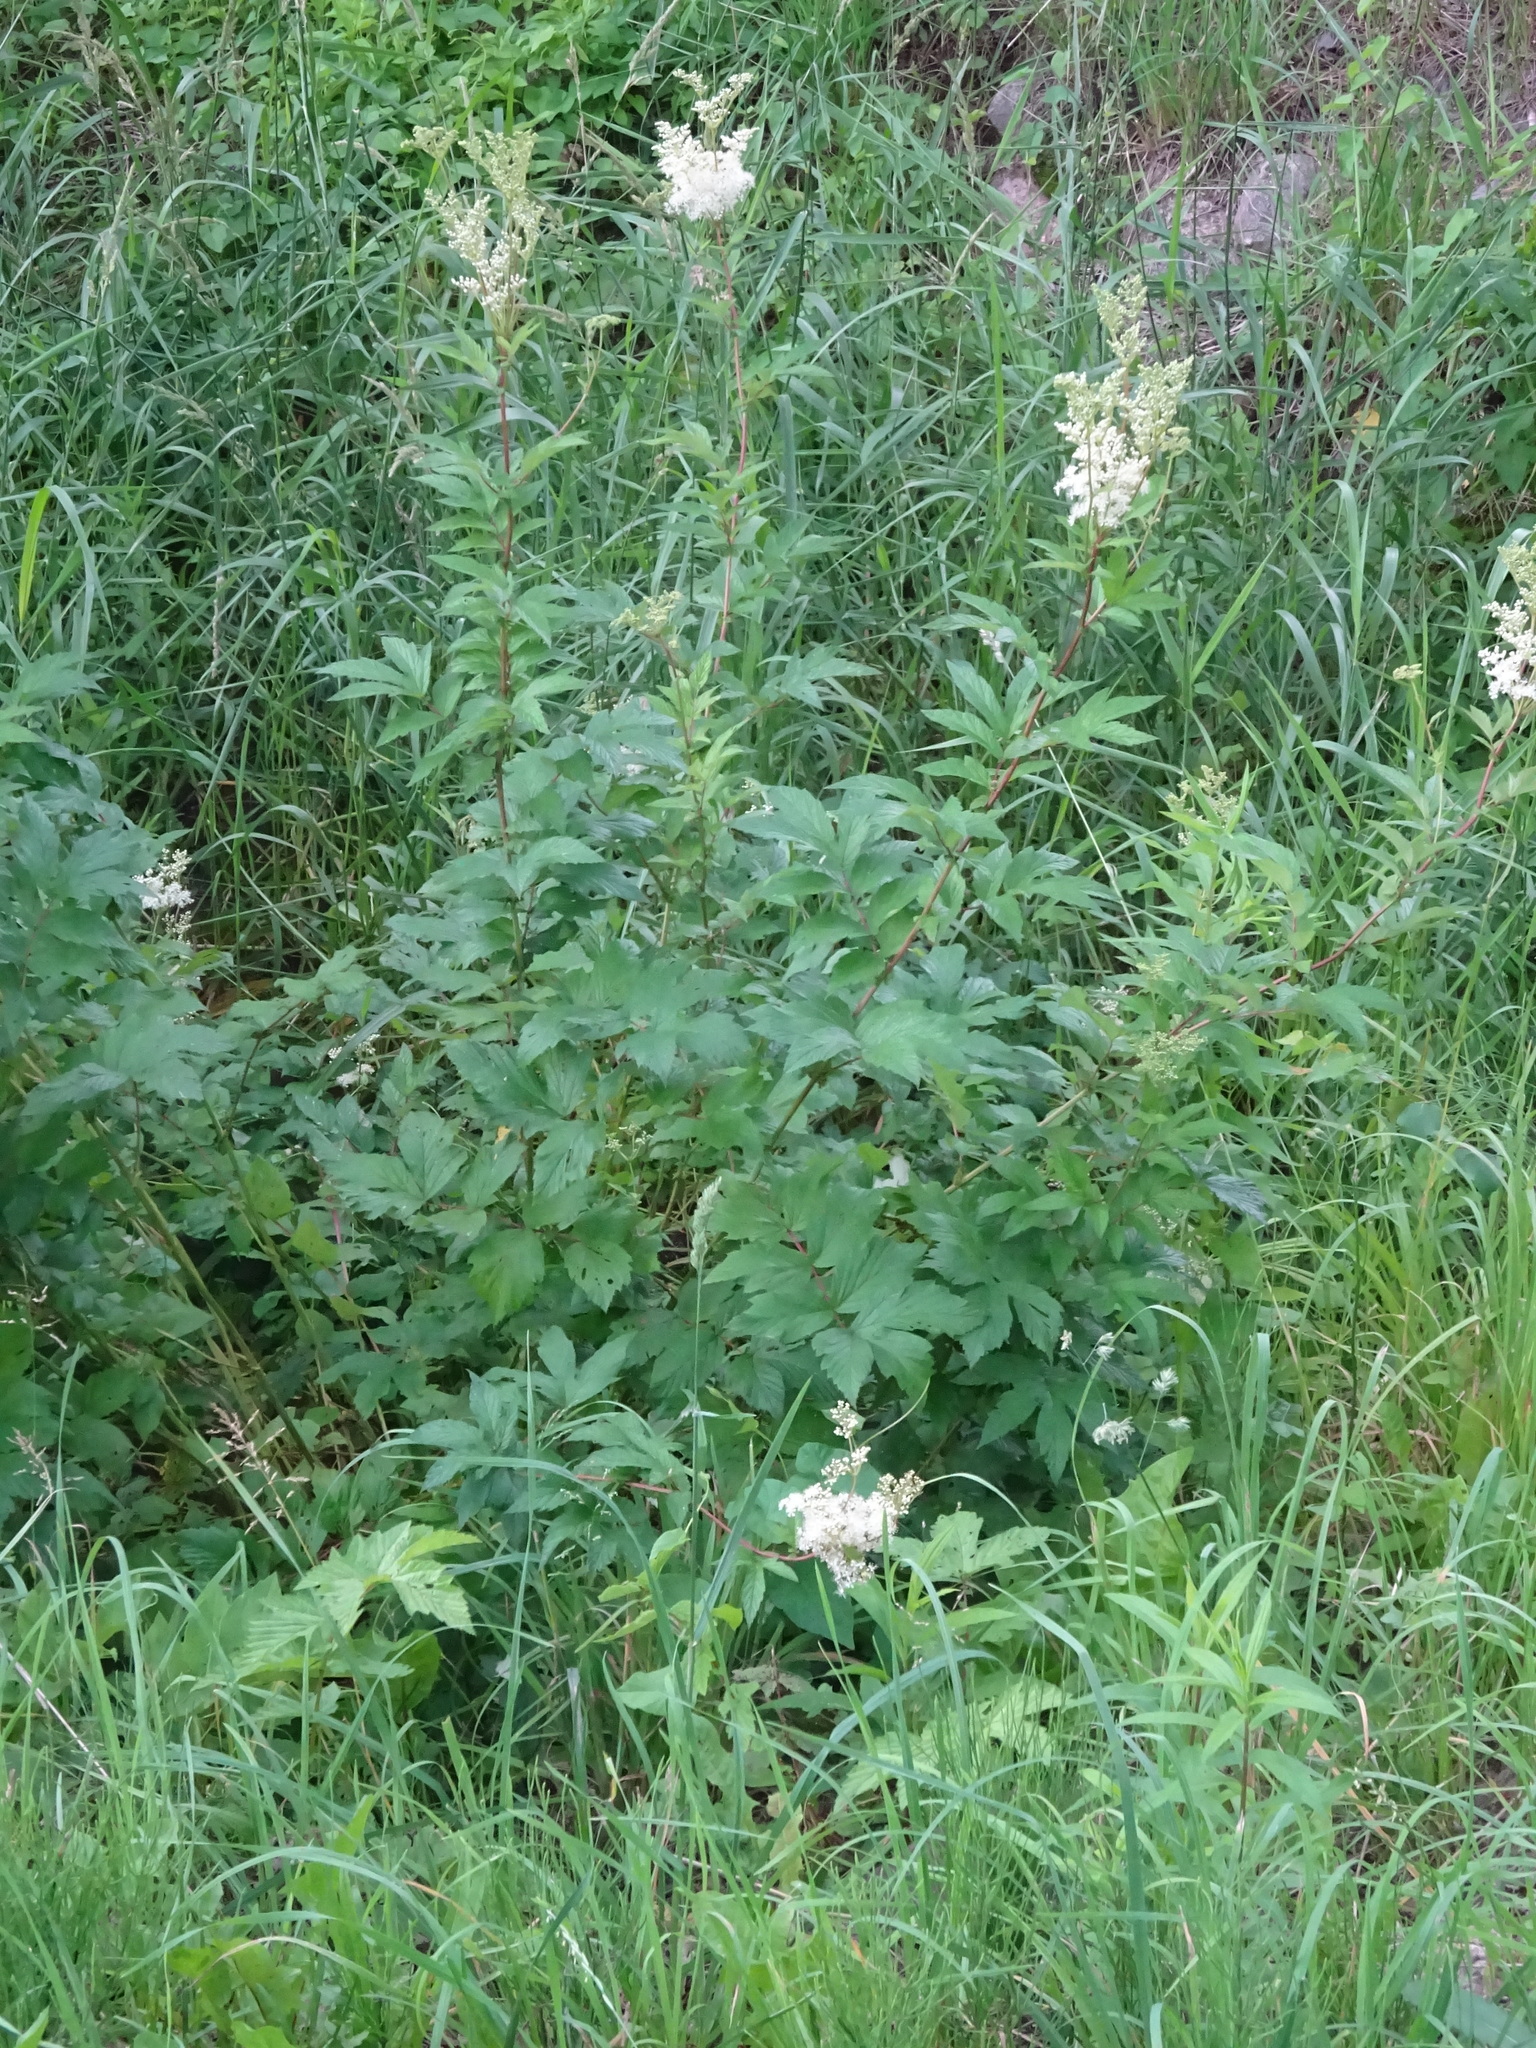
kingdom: Plantae
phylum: Tracheophyta
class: Magnoliopsida
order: Rosales
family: Rosaceae
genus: Filipendula
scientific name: Filipendula ulmaria
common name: Meadowsweet
